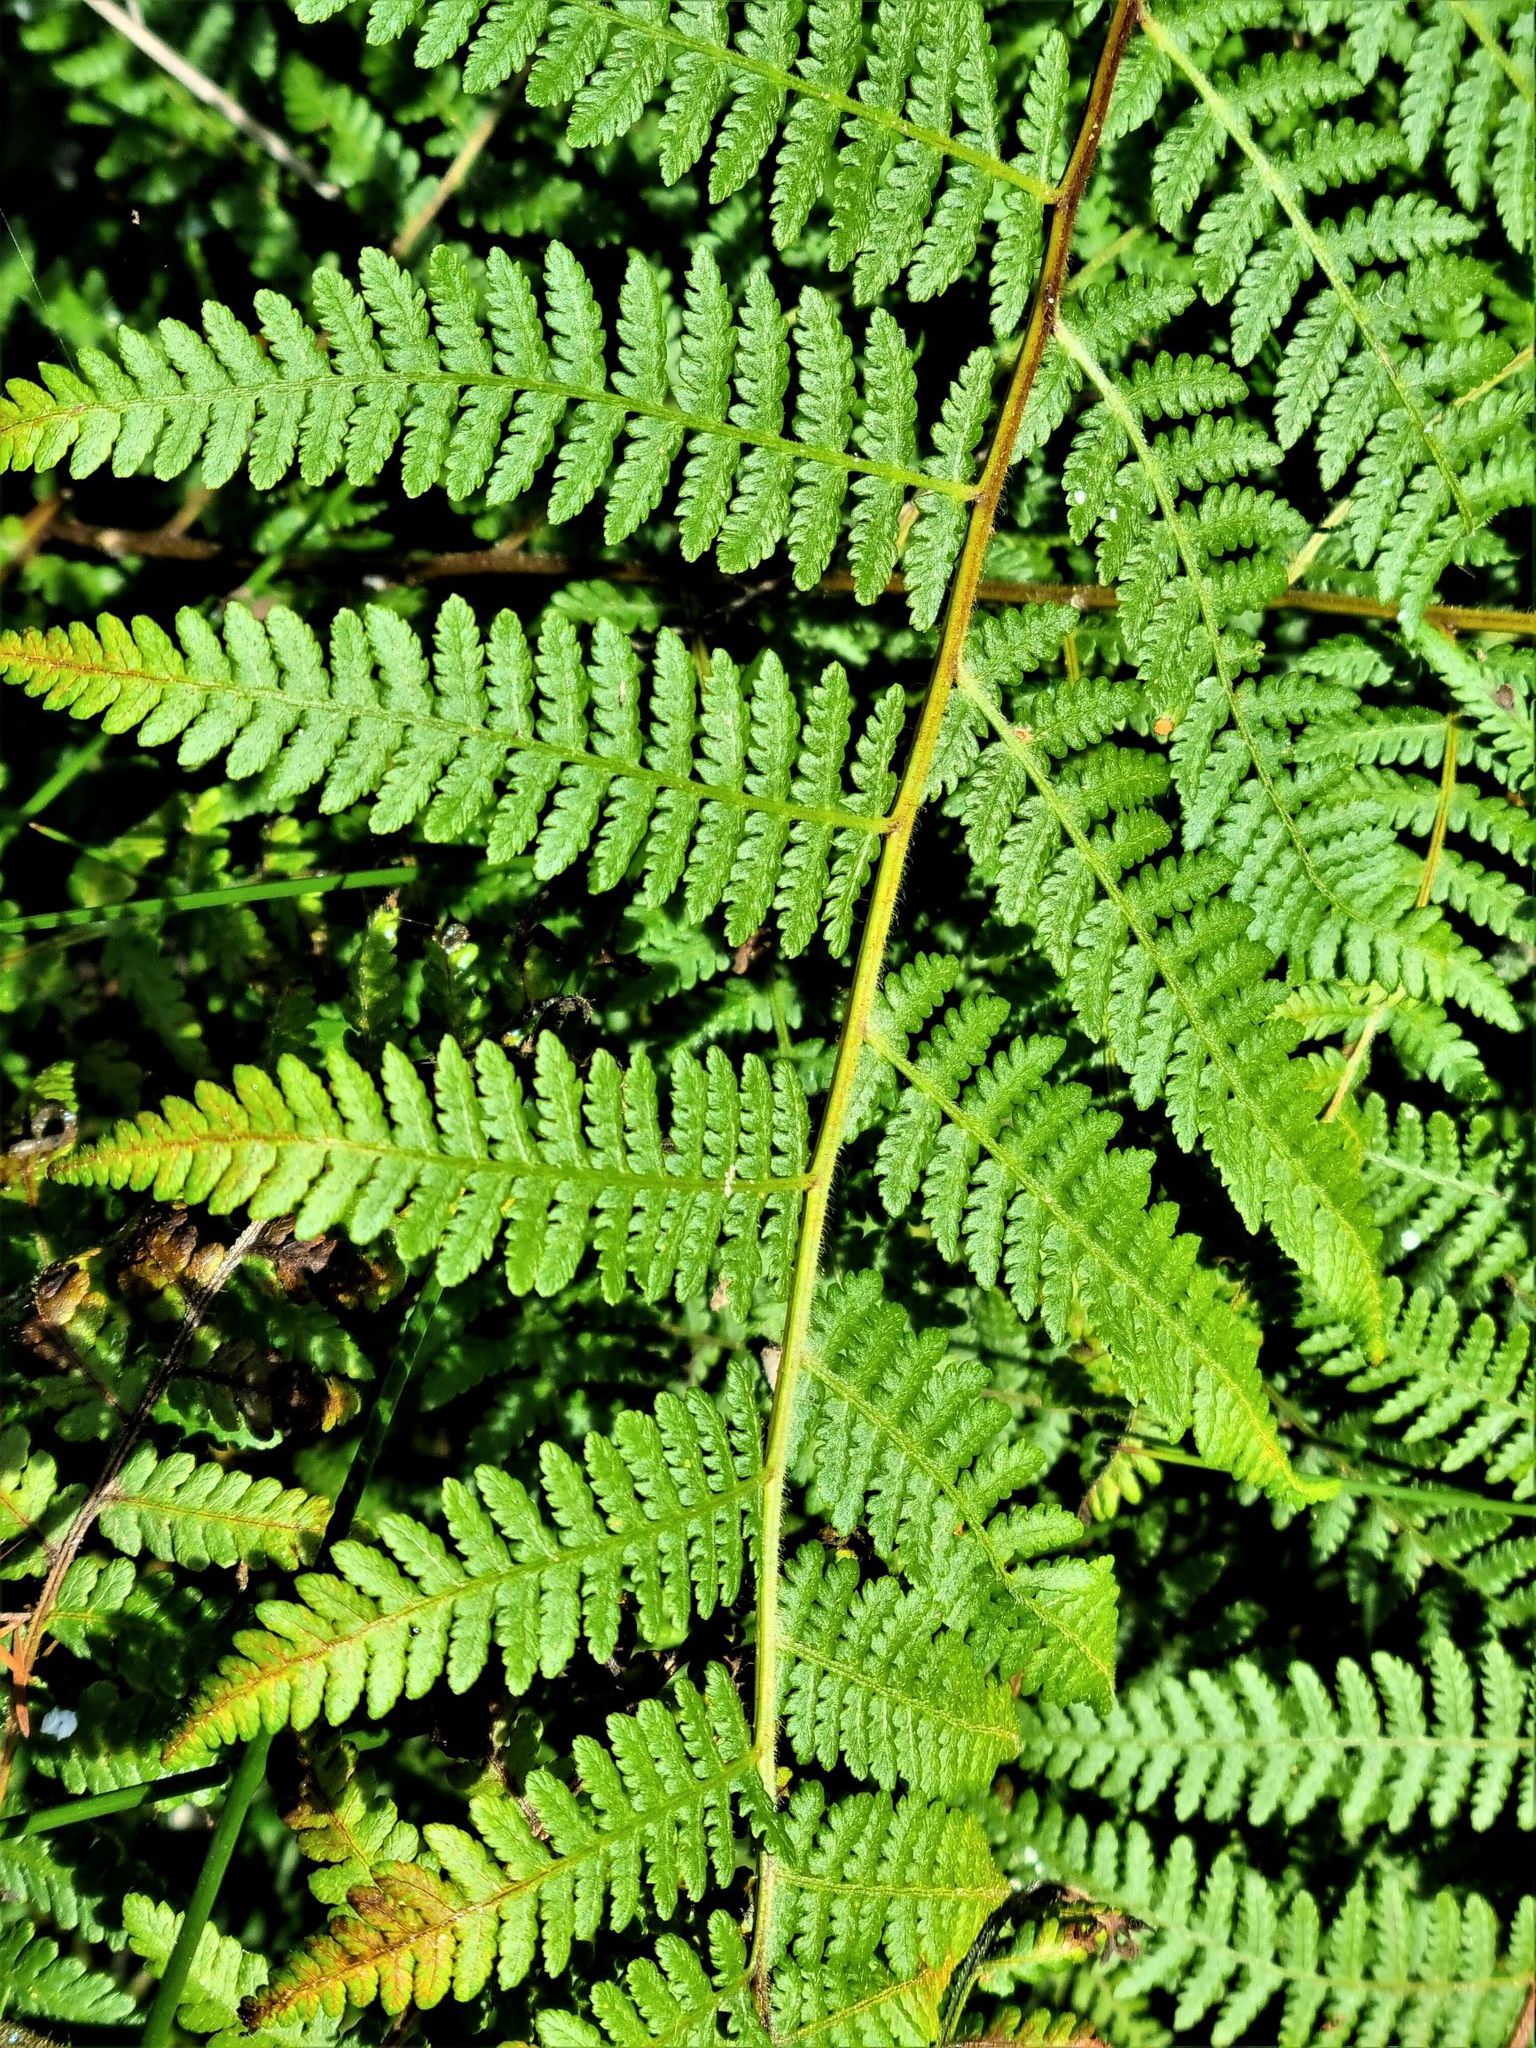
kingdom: Plantae
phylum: Tracheophyta
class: Polypodiopsida
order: Polypodiales
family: Dennstaedtiaceae
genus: Hypolepis
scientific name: Hypolepis ambigua
